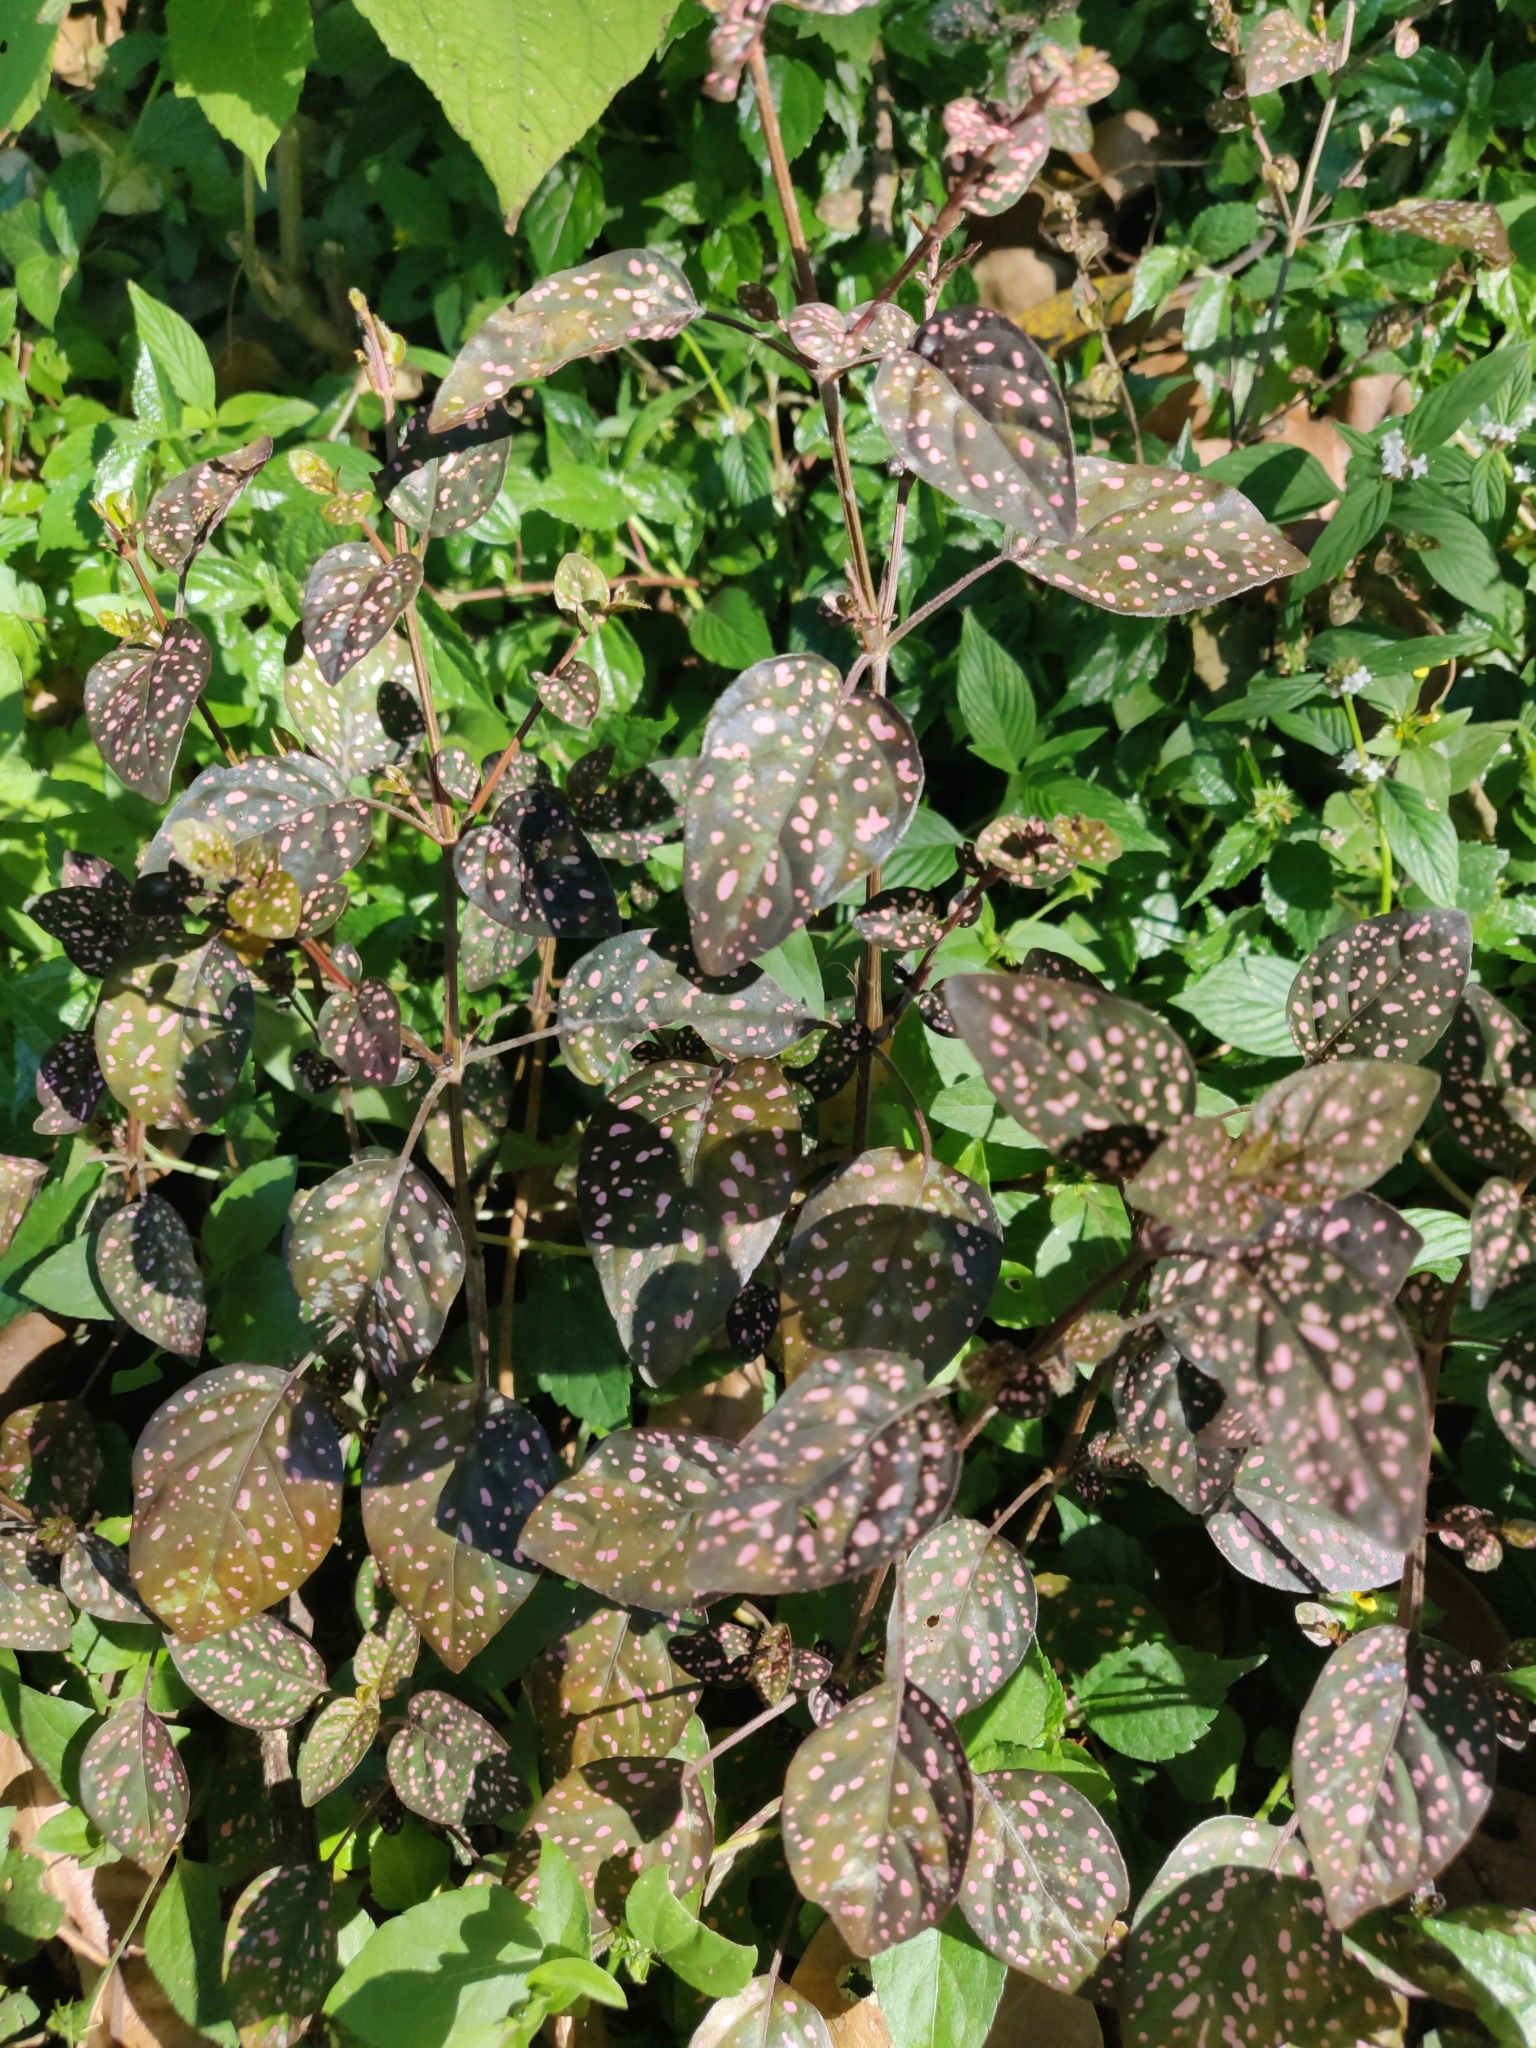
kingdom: Plantae
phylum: Tracheophyta
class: Magnoliopsida
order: Lamiales
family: Acanthaceae
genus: Hypoestes
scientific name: Hypoestes phyllostachya
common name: Polkadot-plant
